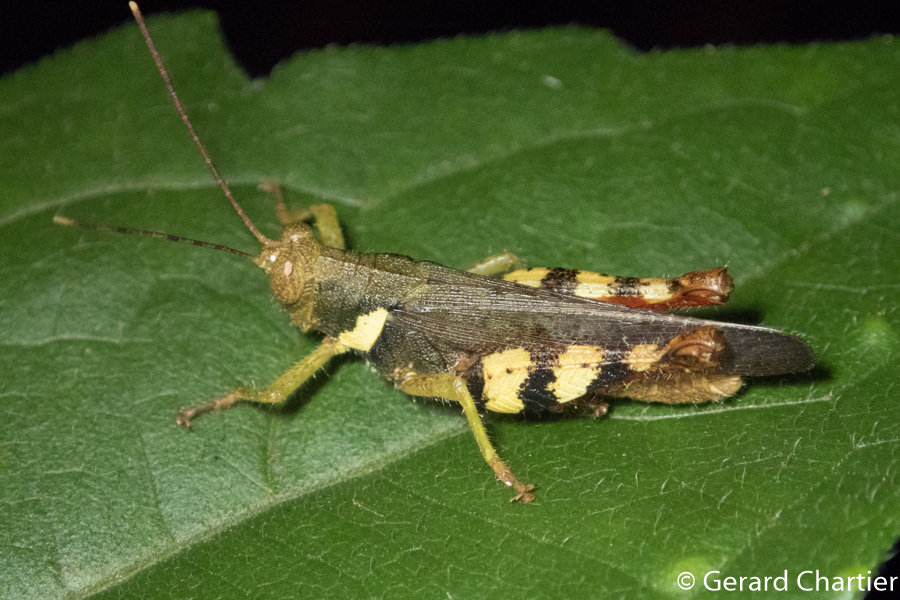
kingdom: Animalia
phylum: Arthropoda
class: Insecta
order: Orthoptera
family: Acrididae
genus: Apalacris
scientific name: Apalacris varicornis
